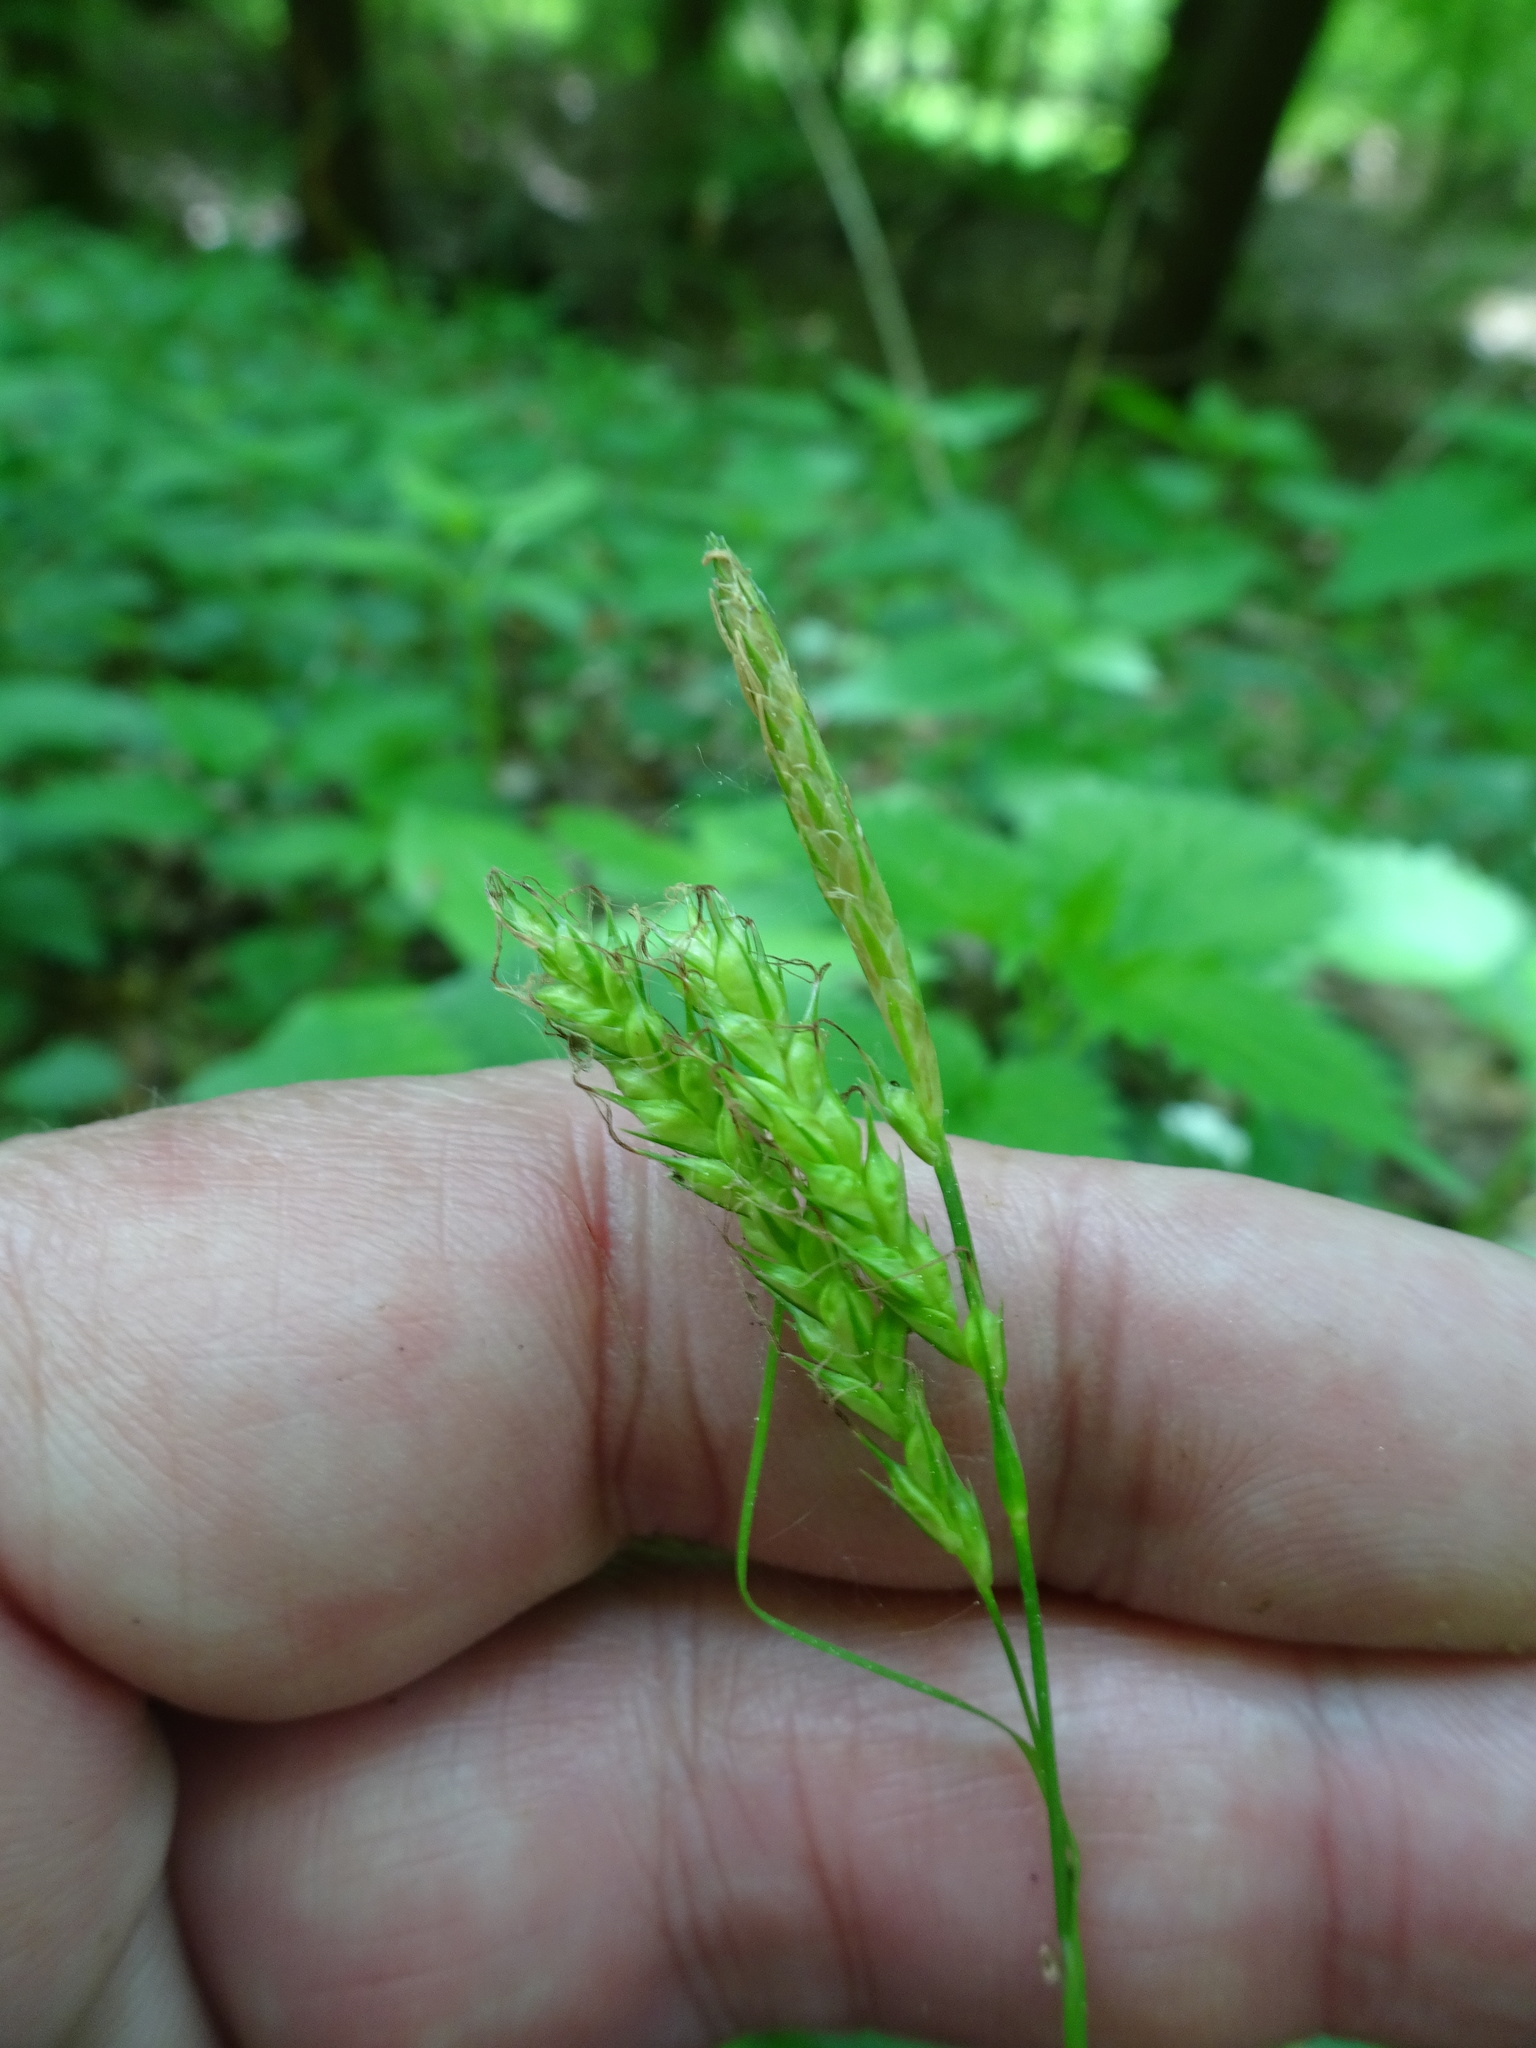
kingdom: Plantae
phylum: Tracheophyta
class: Liliopsida
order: Poales
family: Cyperaceae
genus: Carex
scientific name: Carex sylvatica
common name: Wood-sedge
